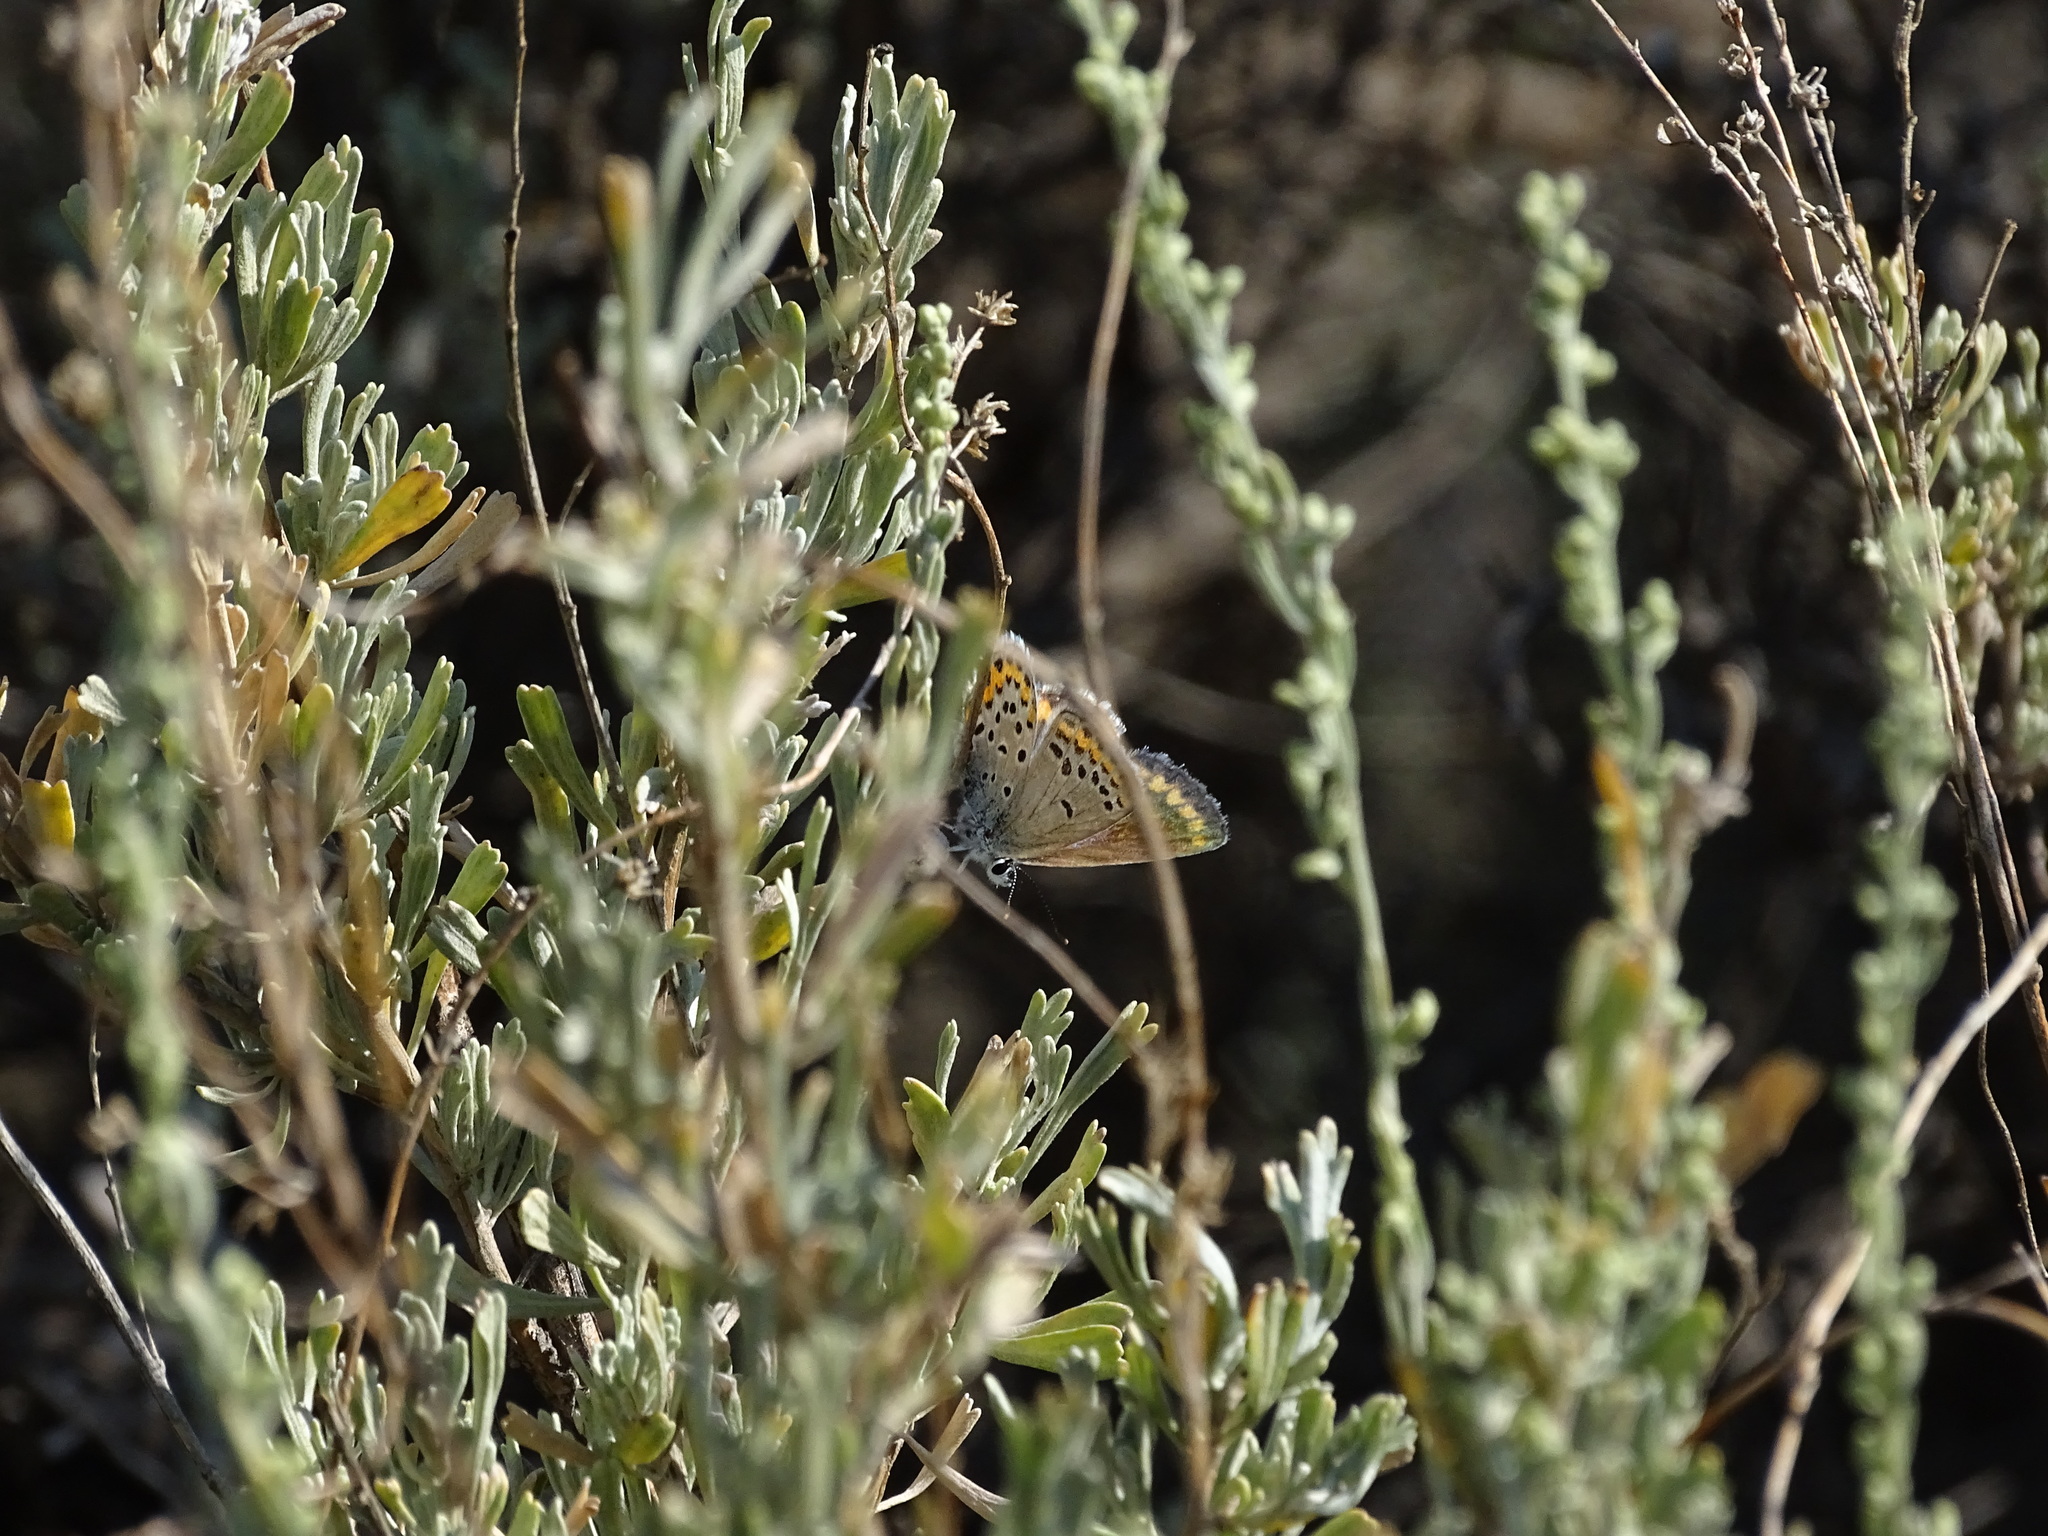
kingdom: Animalia
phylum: Arthropoda
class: Insecta
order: Lepidoptera
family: Lycaenidae
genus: Lycaeides
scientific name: Lycaeides melissa
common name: Melissa blue
